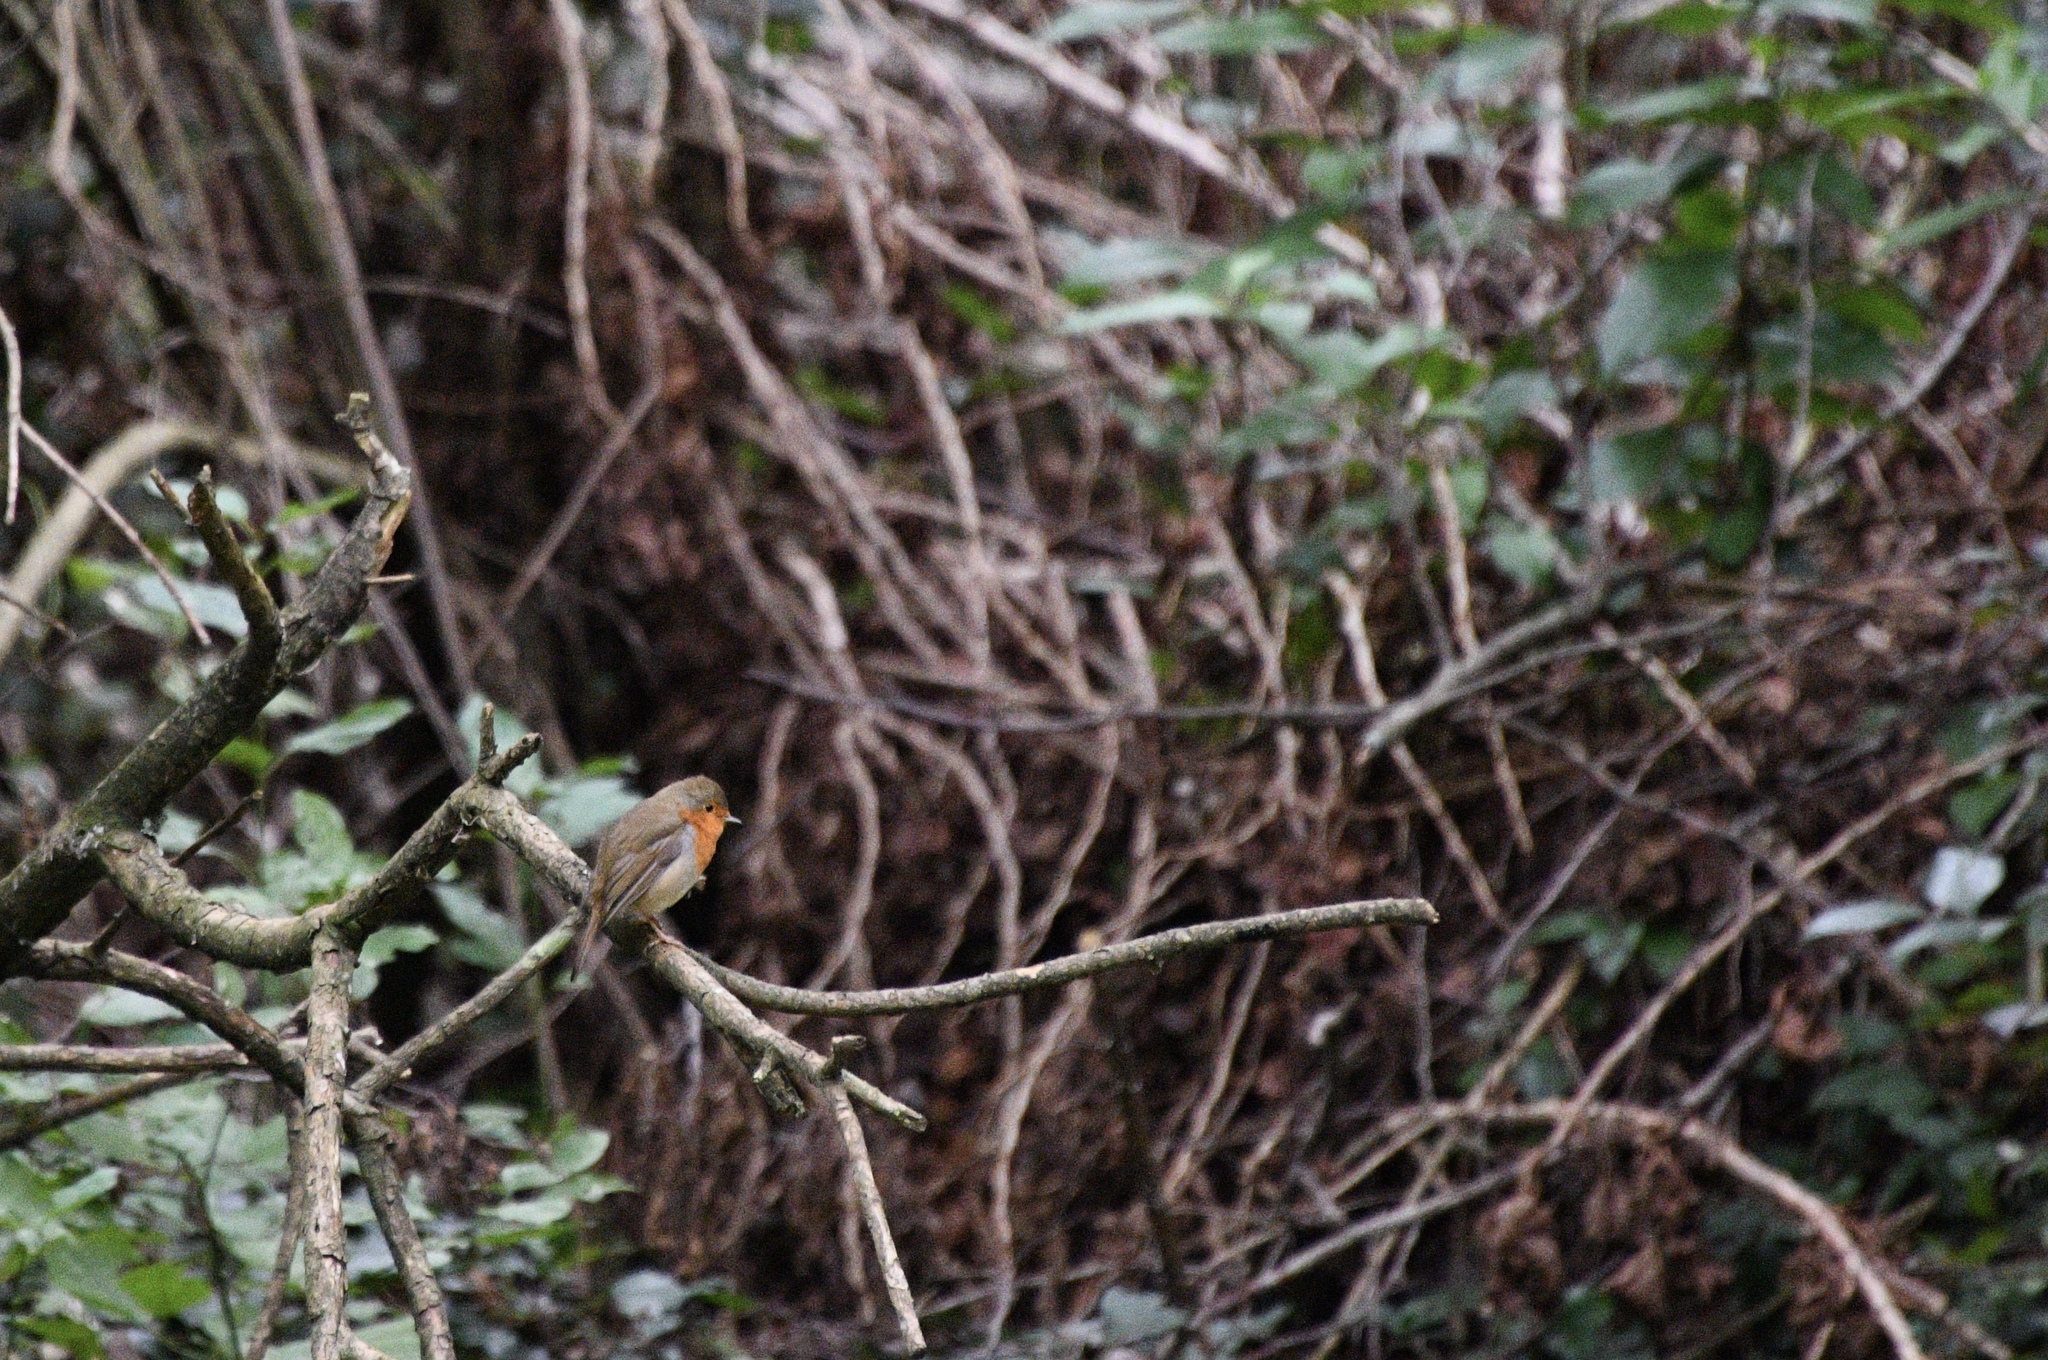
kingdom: Animalia
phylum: Chordata
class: Aves
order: Passeriformes
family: Muscicapidae
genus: Erithacus
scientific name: Erithacus rubecula
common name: European robin
